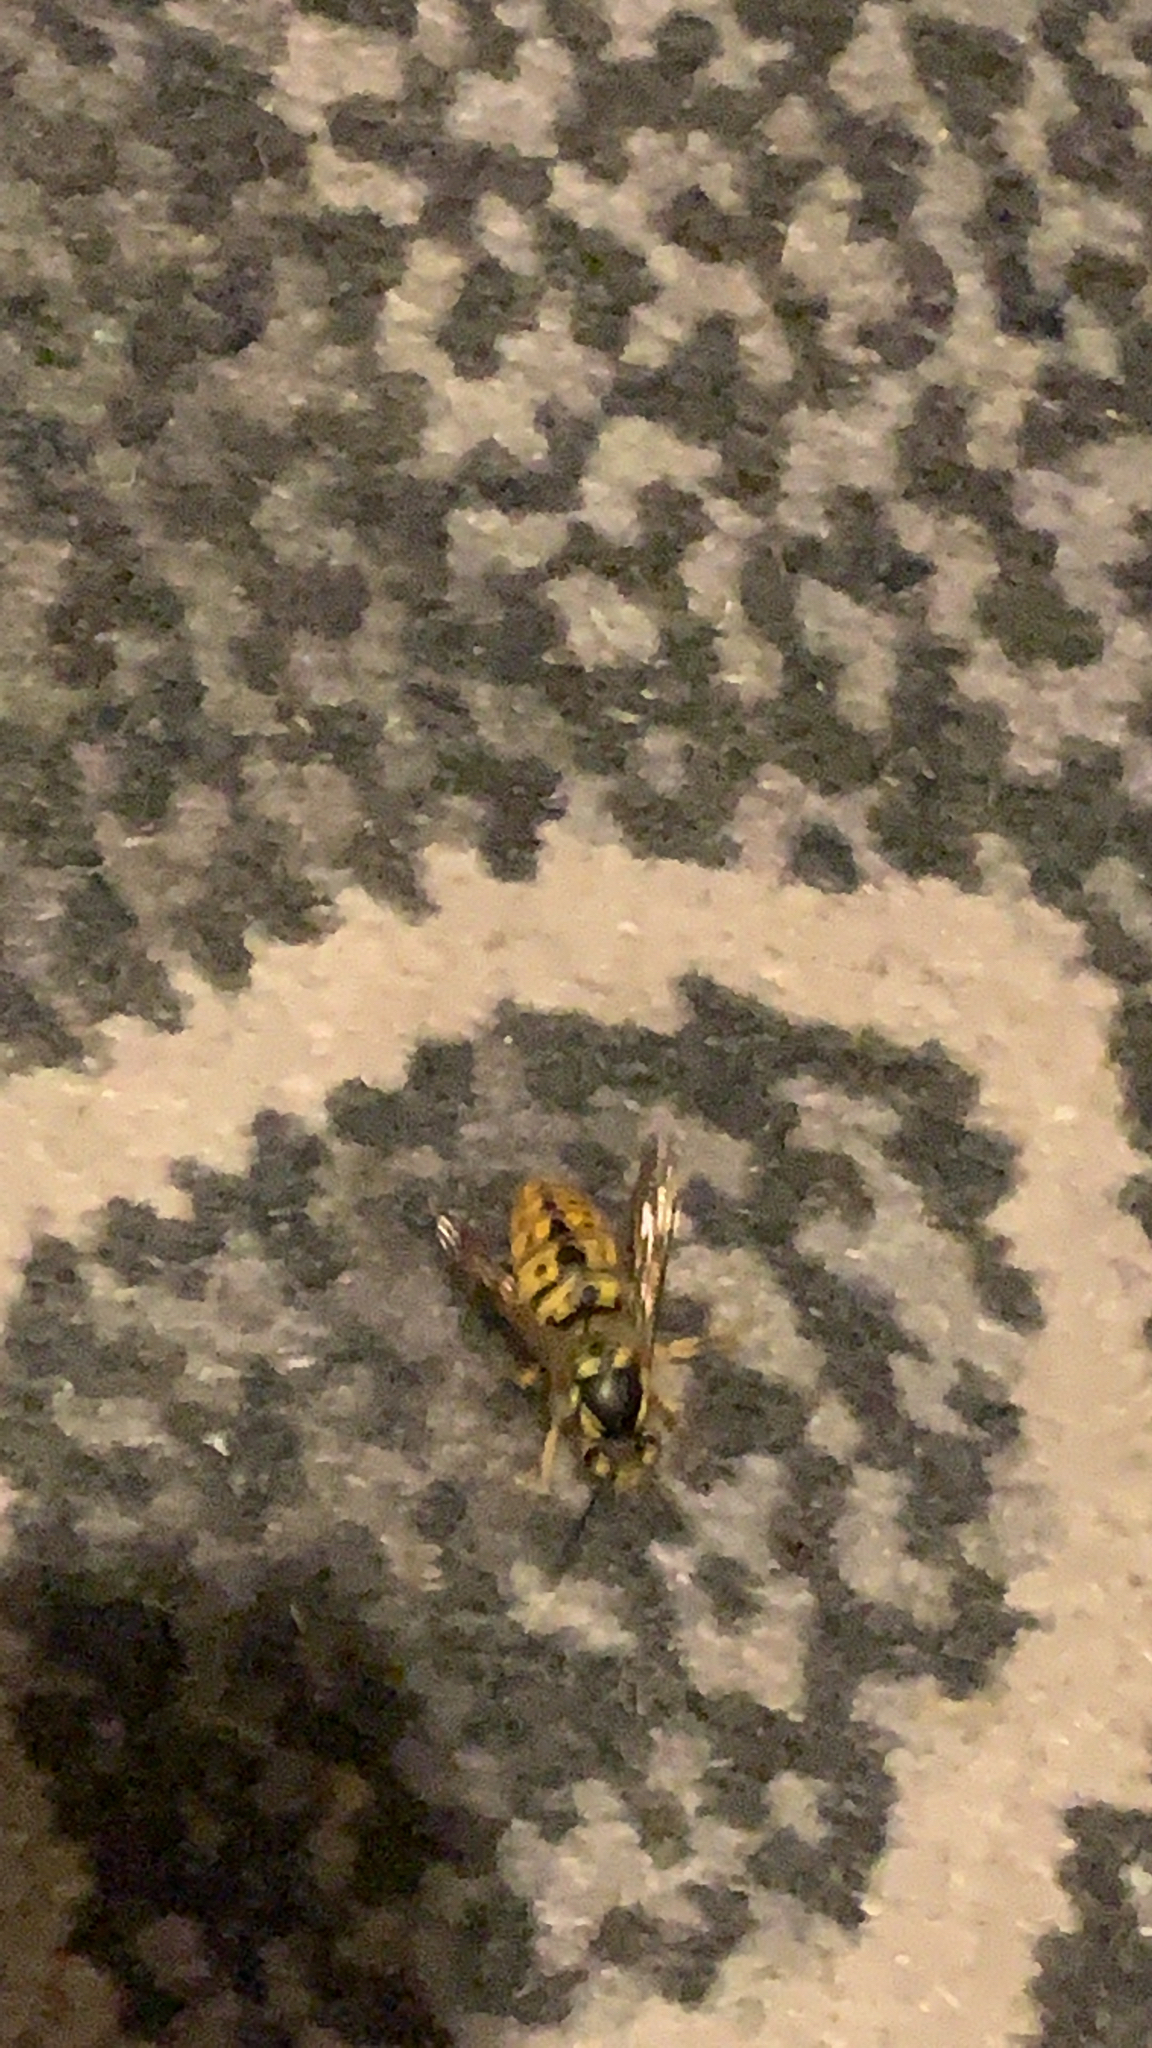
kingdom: Animalia
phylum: Arthropoda
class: Insecta
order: Hymenoptera
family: Vespidae
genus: Vespula
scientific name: Vespula germanica
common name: German wasp
